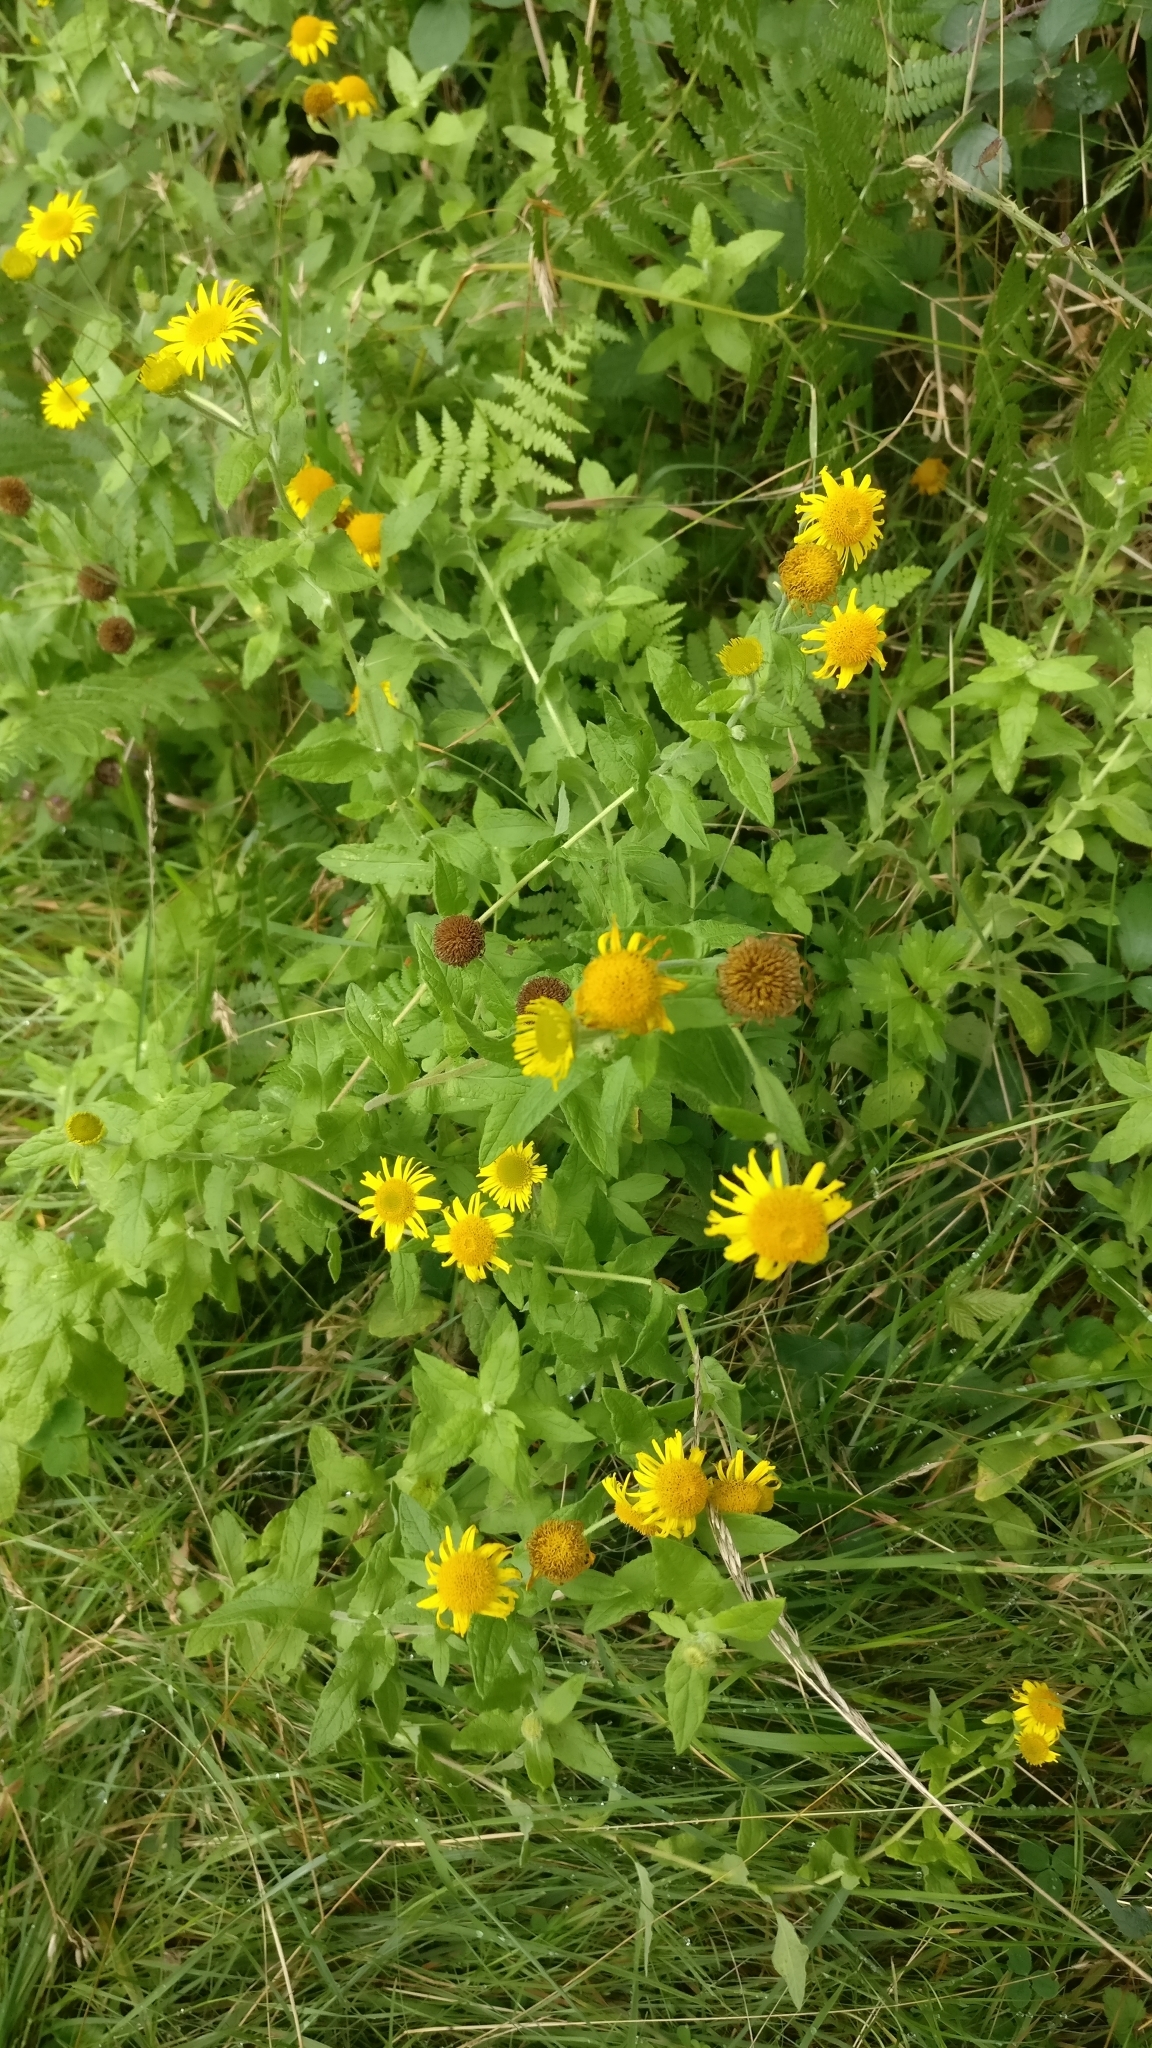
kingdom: Plantae
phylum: Tracheophyta
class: Magnoliopsida
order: Asterales
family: Asteraceae
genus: Pulicaria
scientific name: Pulicaria dysenterica
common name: Common fleabane
